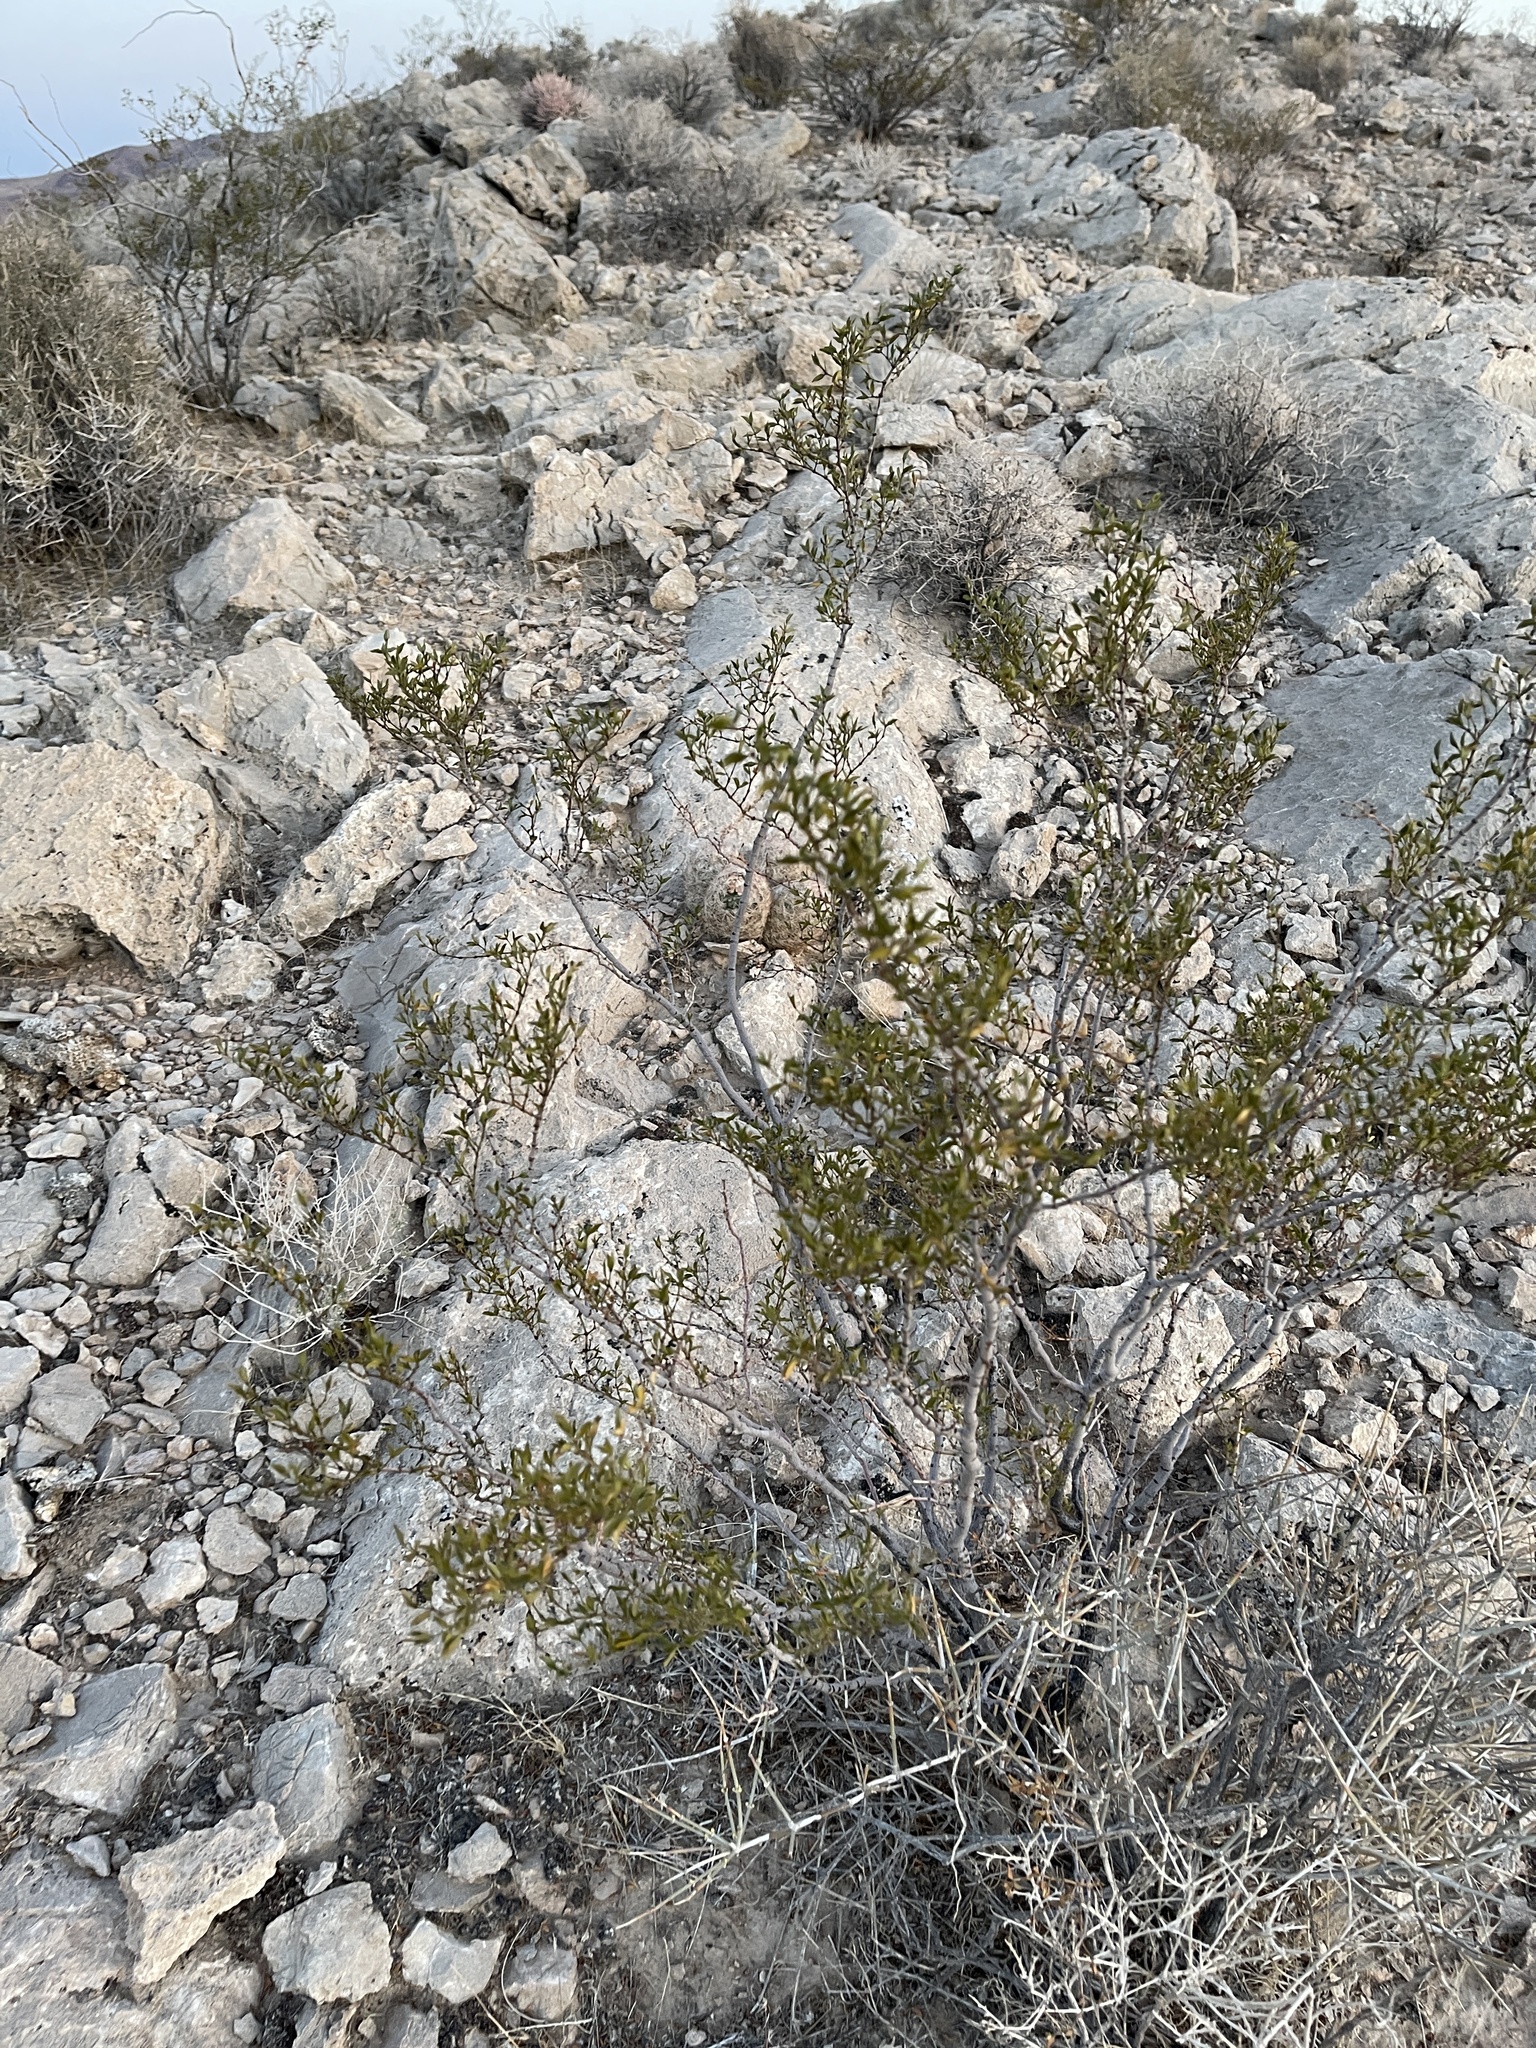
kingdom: Plantae
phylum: Tracheophyta
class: Magnoliopsida
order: Zygophyllales
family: Zygophyllaceae
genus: Larrea
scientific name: Larrea tridentata
